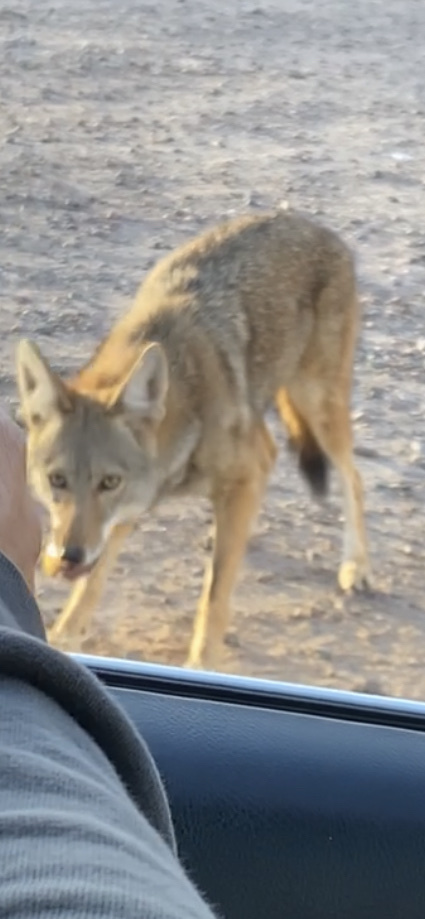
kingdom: Animalia
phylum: Chordata
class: Mammalia
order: Carnivora
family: Canidae
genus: Canis
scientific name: Canis latrans
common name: Coyote
